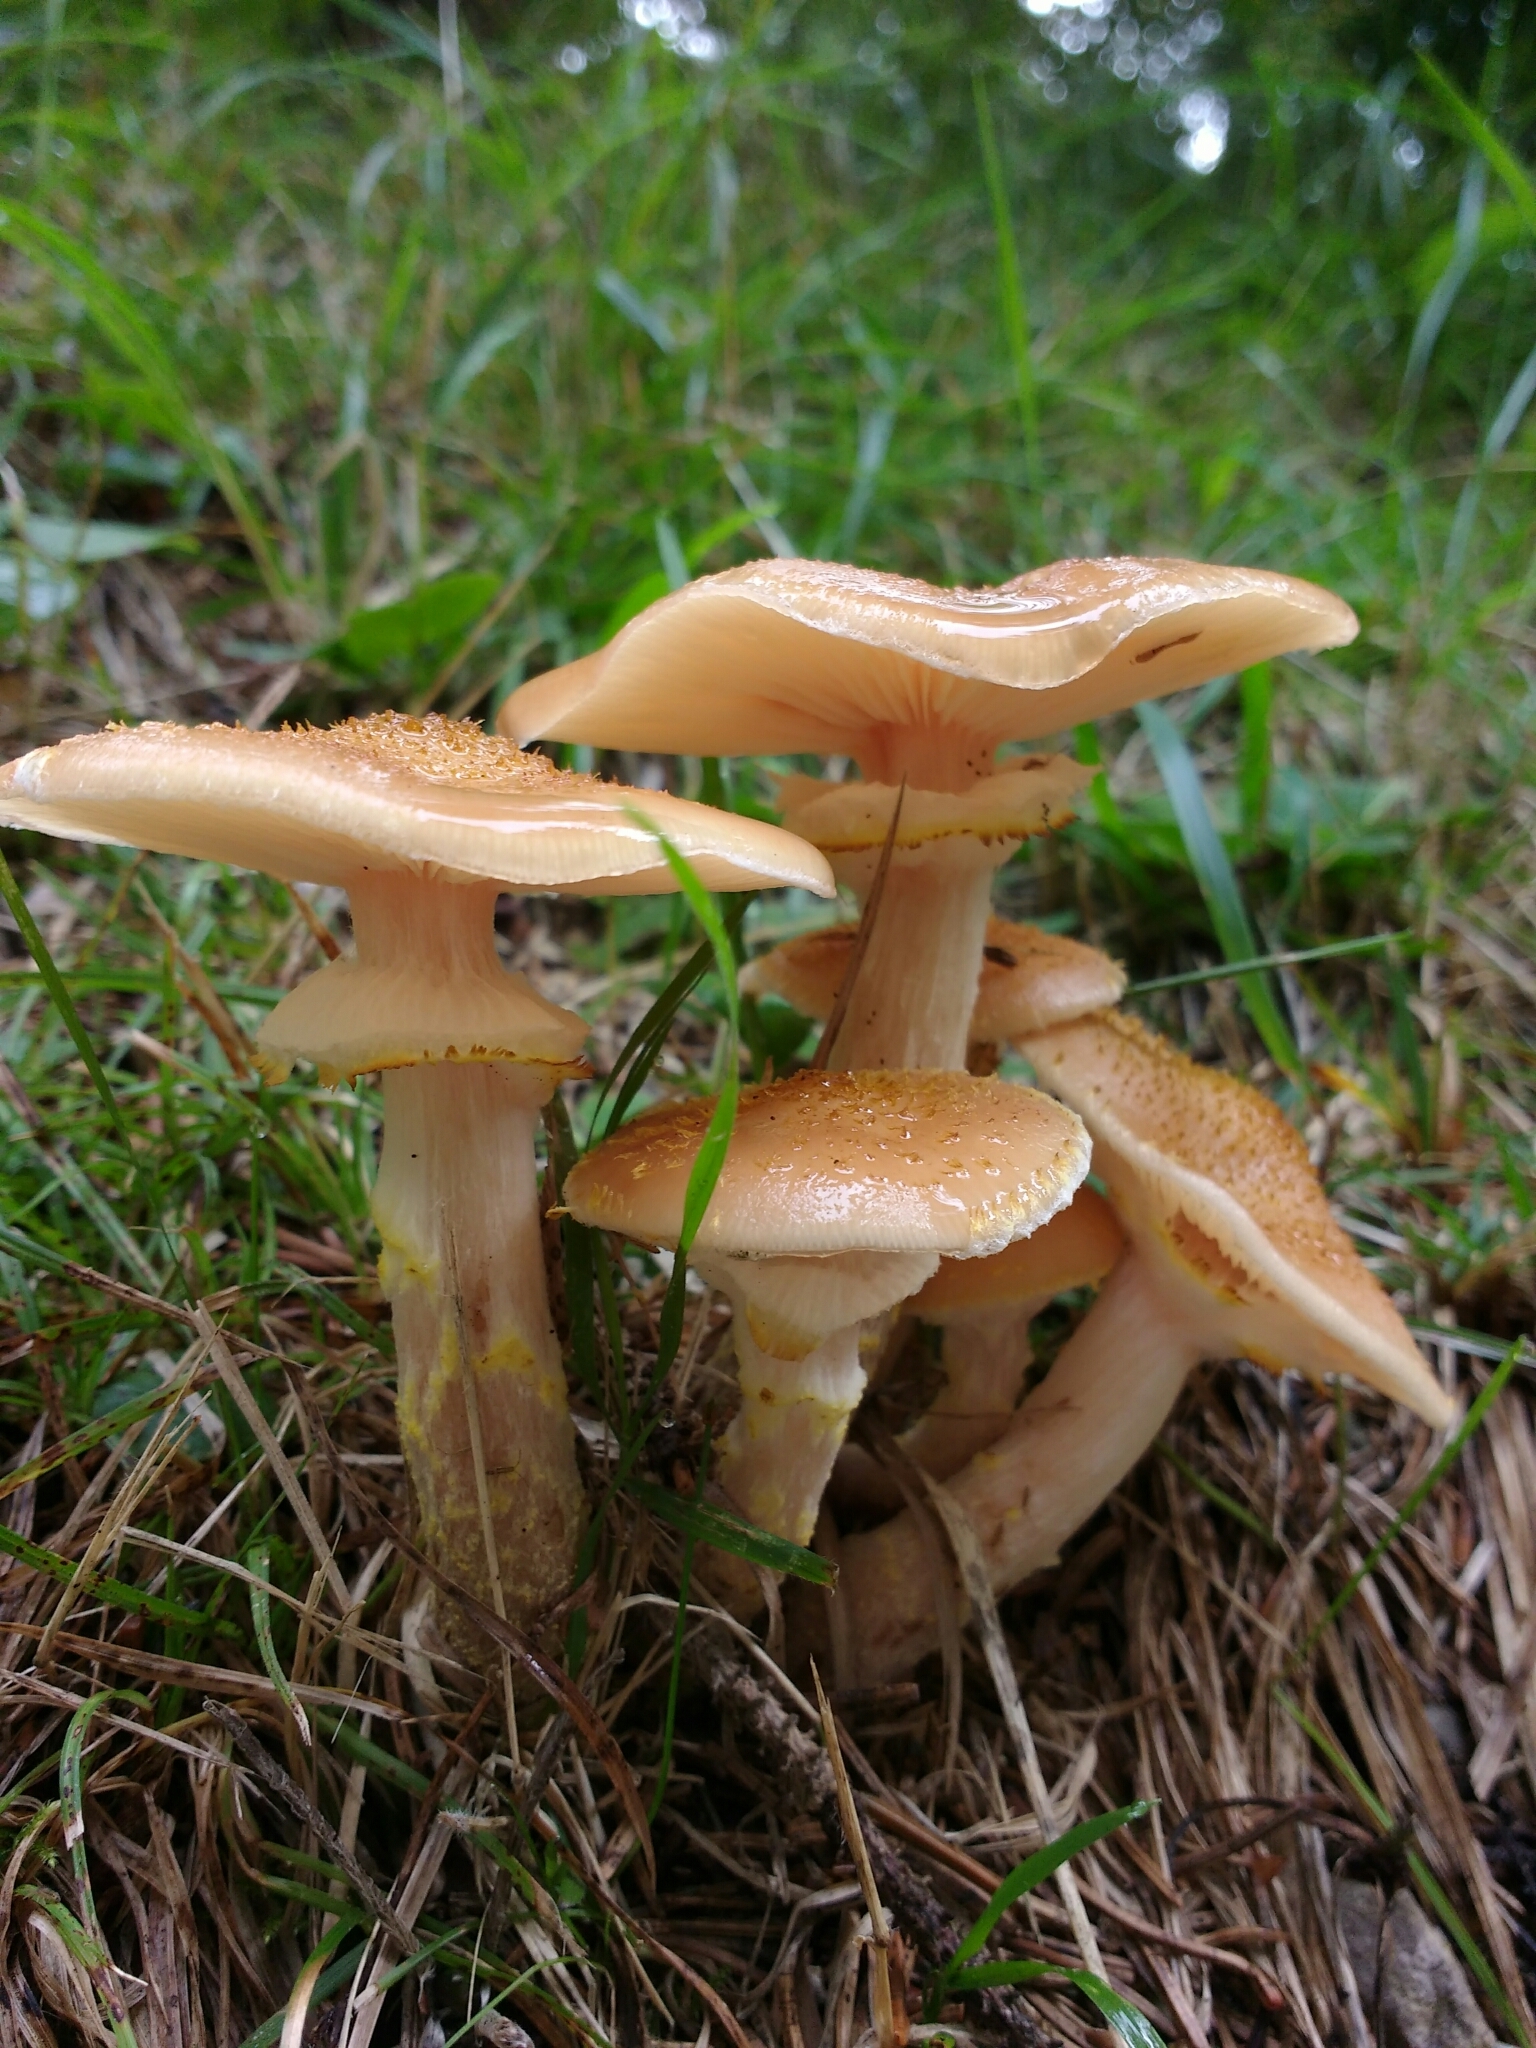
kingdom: Fungi
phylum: Basidiomycota
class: Agaricomycetes
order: Agaricales
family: Physalacriaceae
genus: Armillaria
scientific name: Armillaria mellea
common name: Honey fungus
